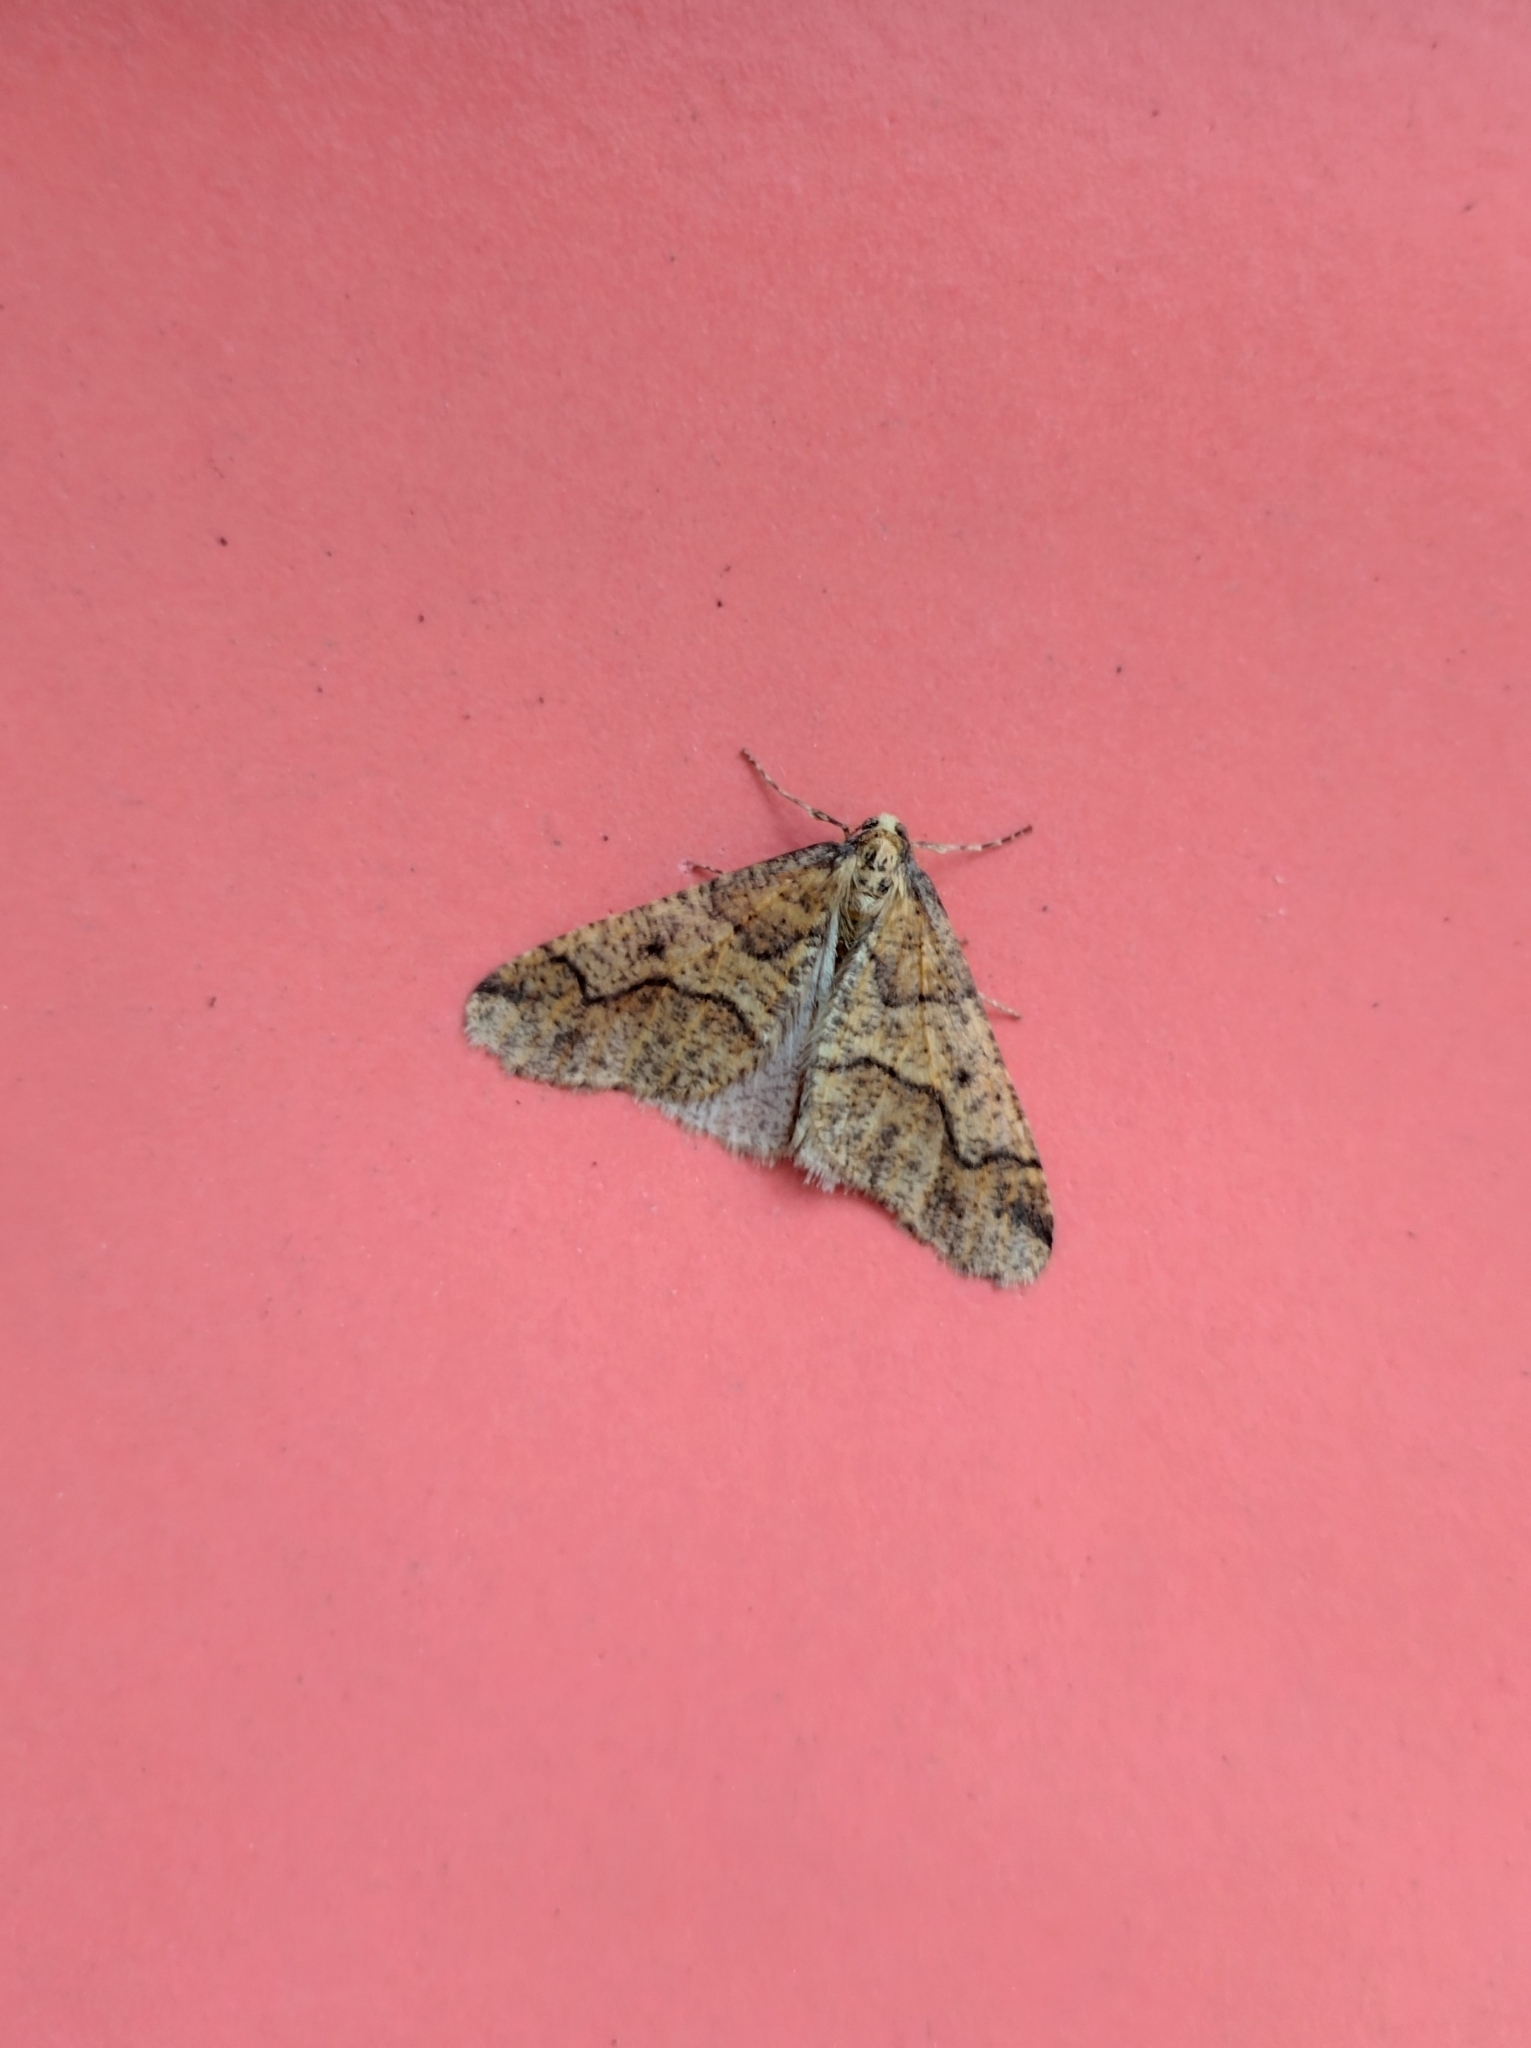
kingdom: Animalia
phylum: Arthropoda
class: Insecta
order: Lepidoptera
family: Geometridae
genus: Erannis
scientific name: Erannis defoliaria
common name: Mottled umber
